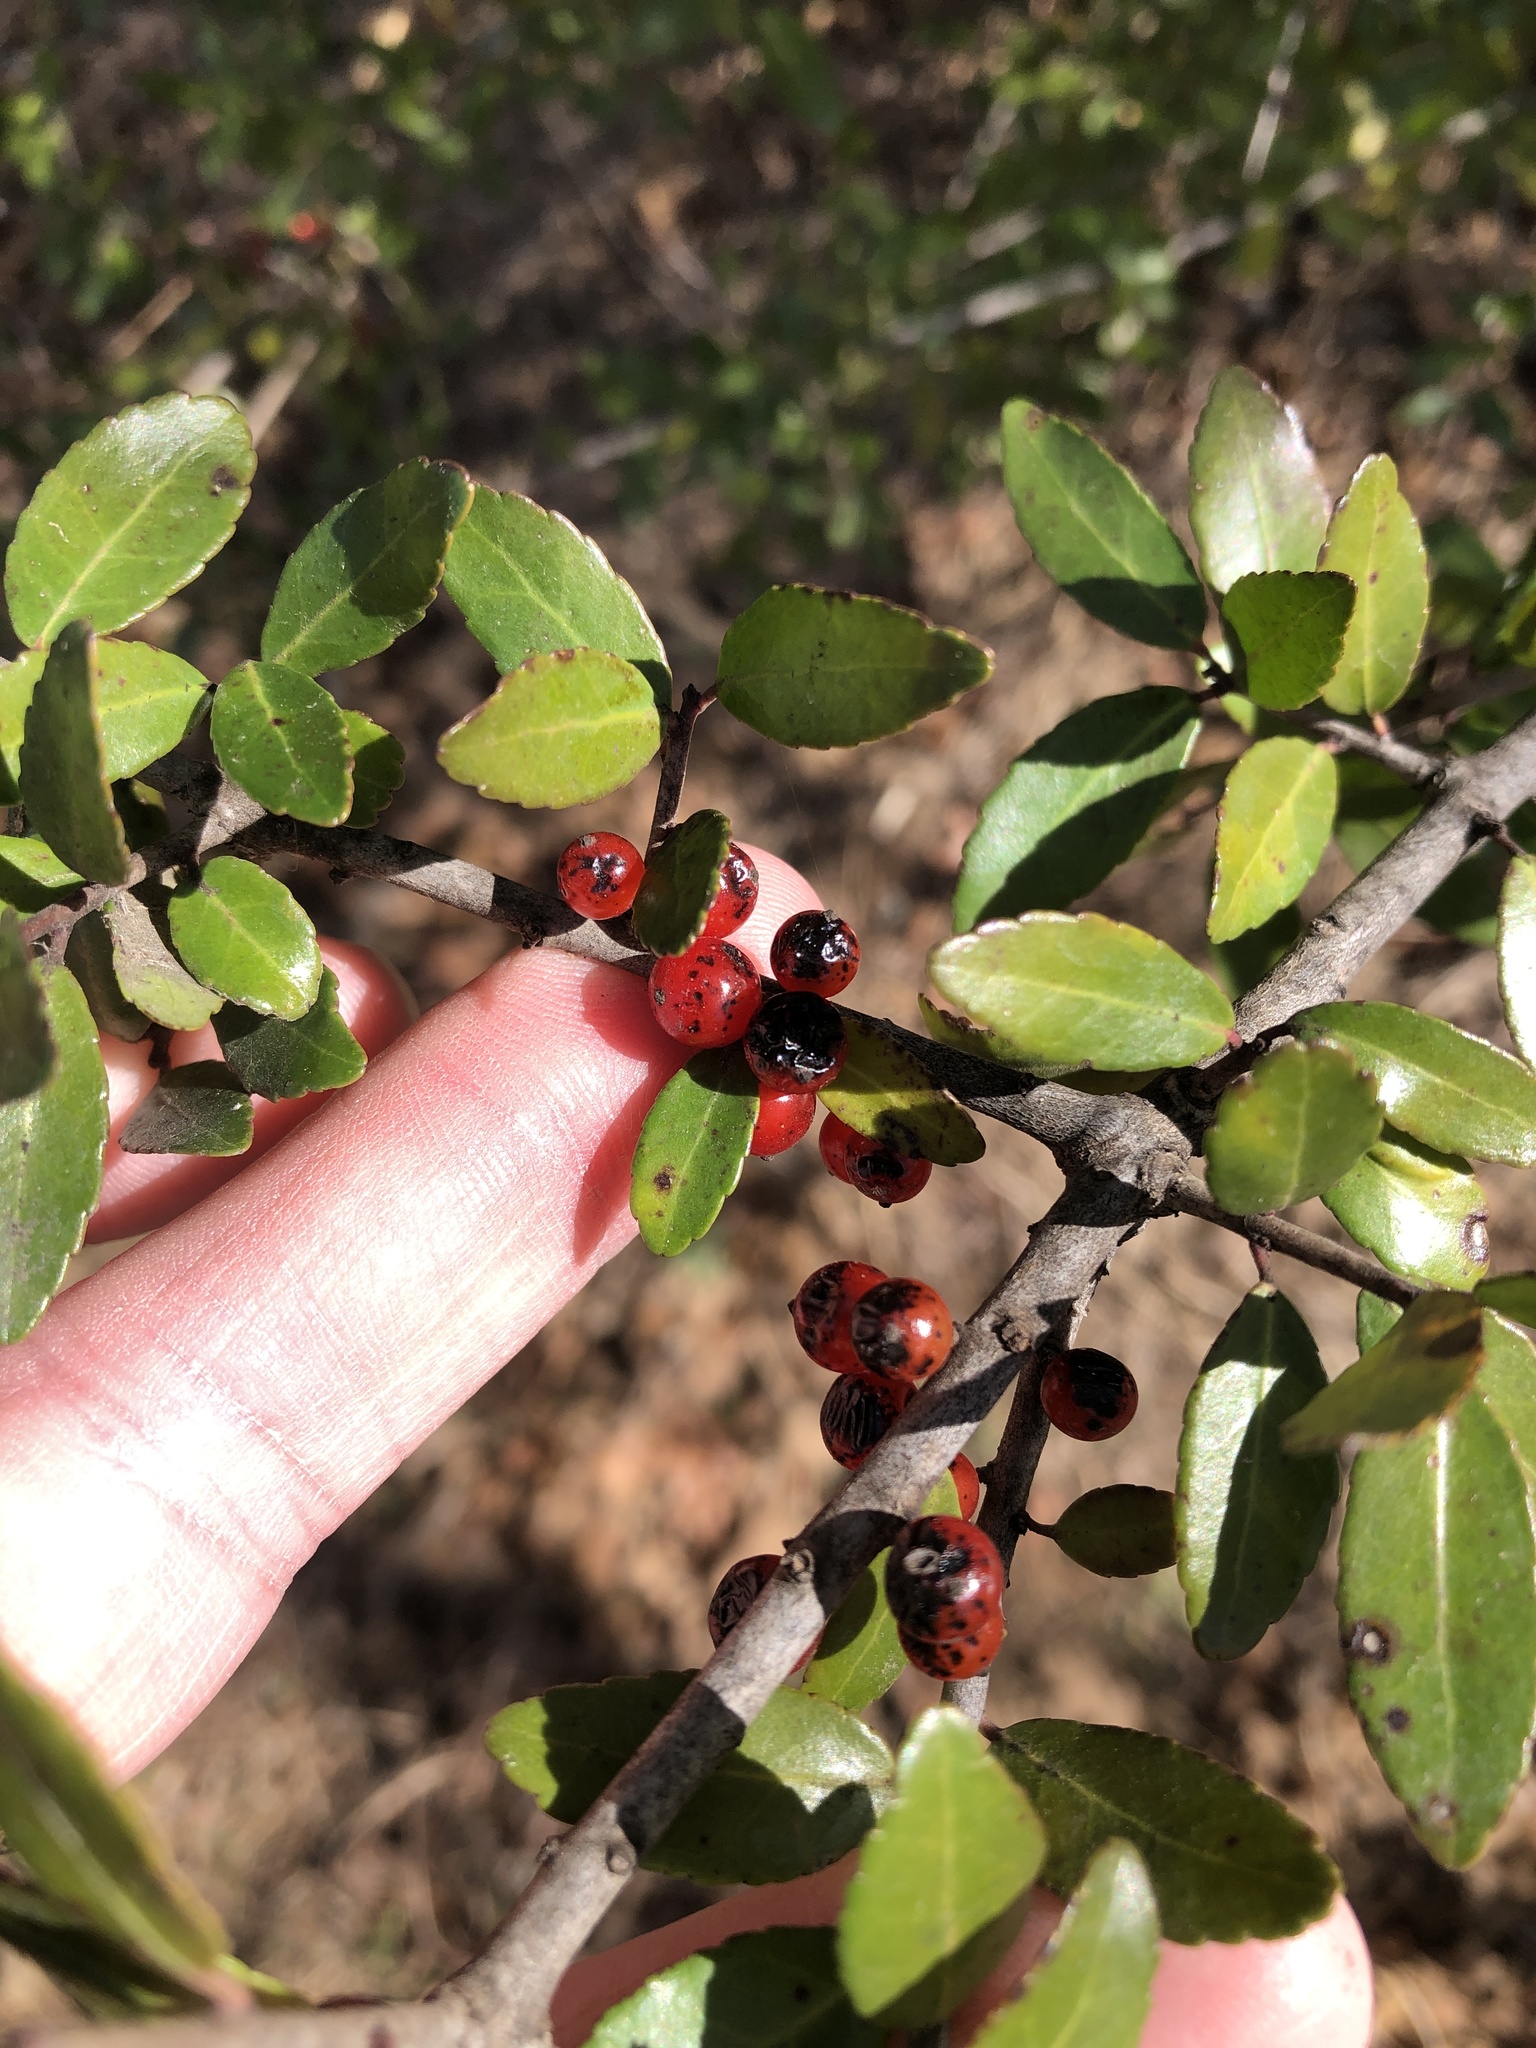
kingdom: Plantae
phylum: Tracheophyta
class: Magnoliopsida
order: Aquifoliales
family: Aquifoliaceae
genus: Ilex
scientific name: Ilex vomitoria
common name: Yaupon holly
